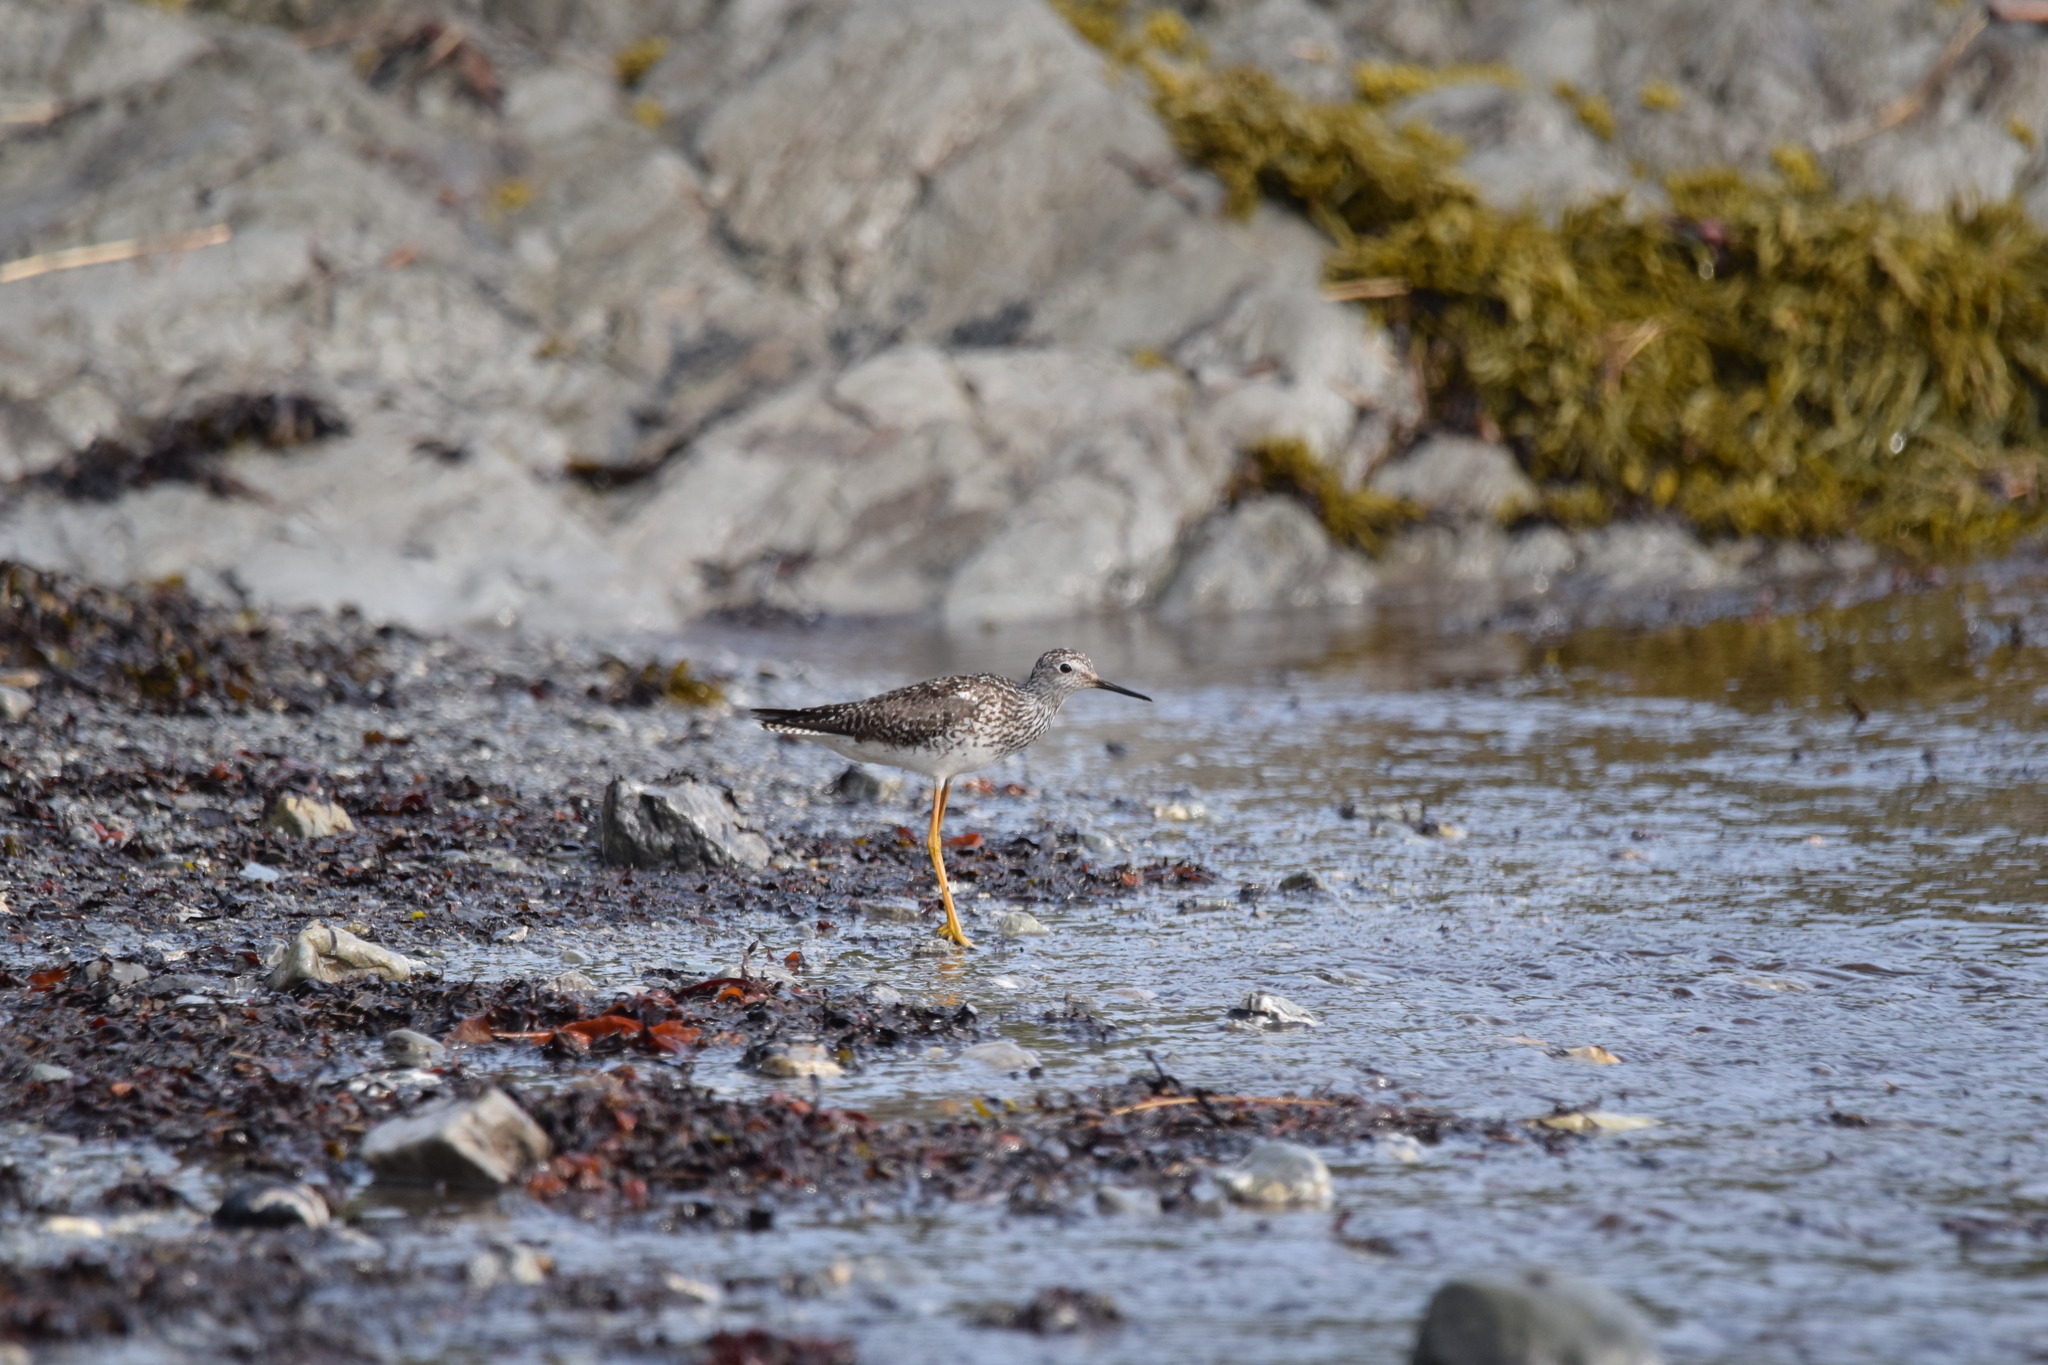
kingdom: Animalia
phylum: Chordata
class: Aves
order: Charadriiformes
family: Scolopacidae
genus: Tringa
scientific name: Tringa flavipes
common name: Lesser yellowlegs
